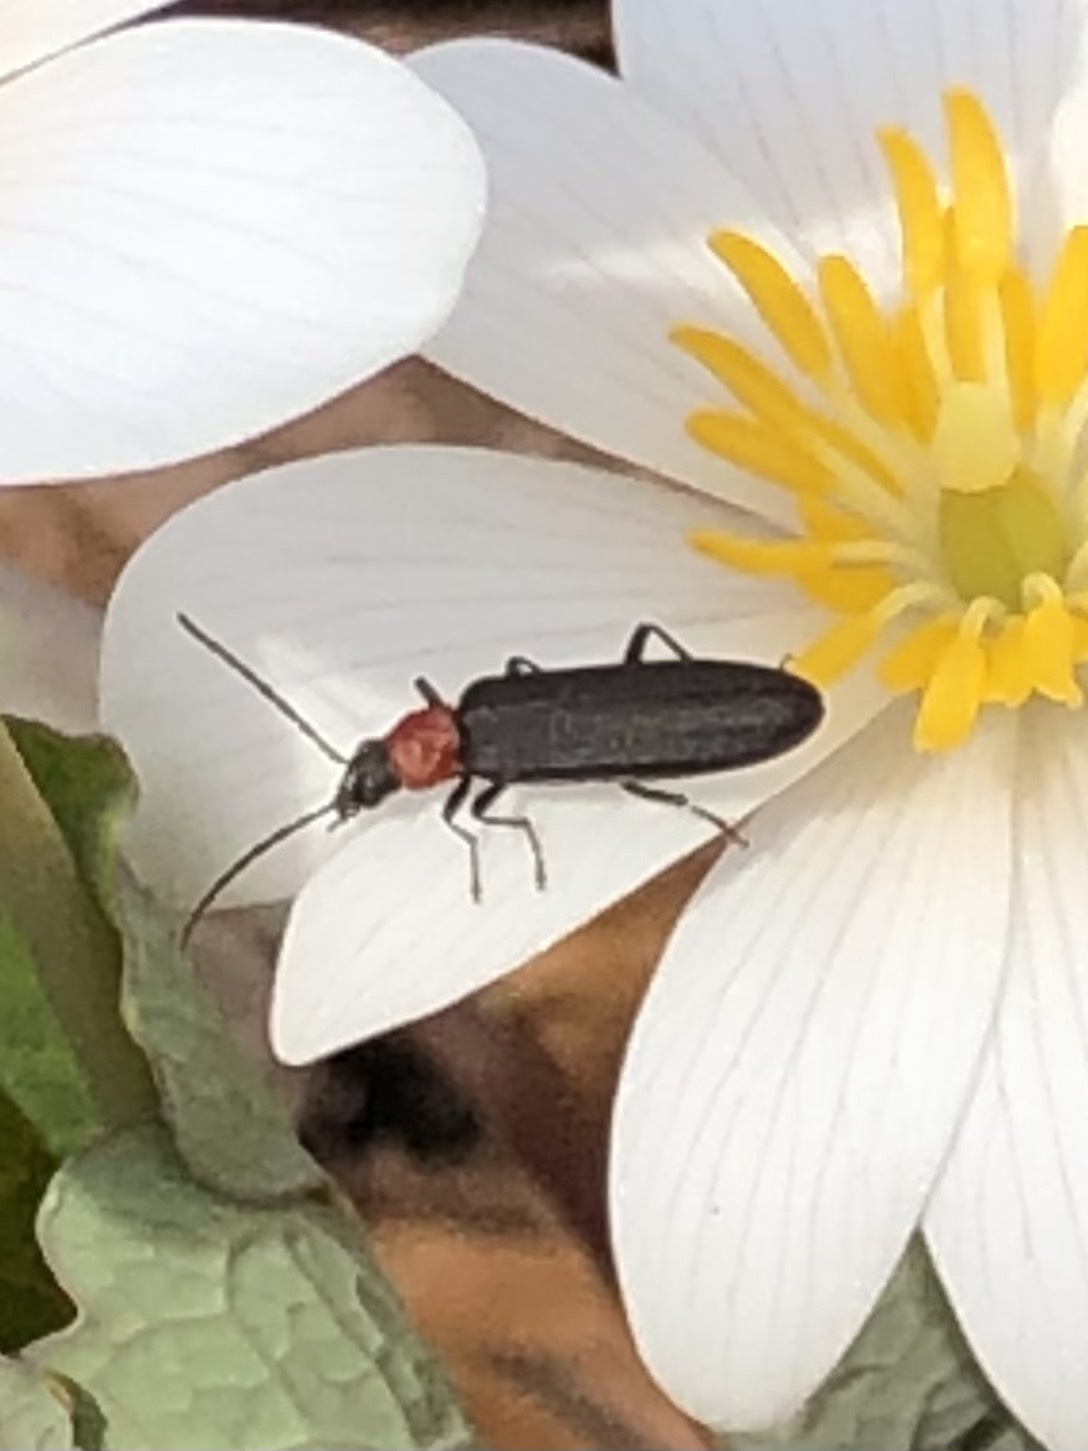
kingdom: Animalia
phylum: Arthropoda
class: Insecta
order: Coleoptera
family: Oedemeridae
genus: Ischnomera
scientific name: Ischnomera
